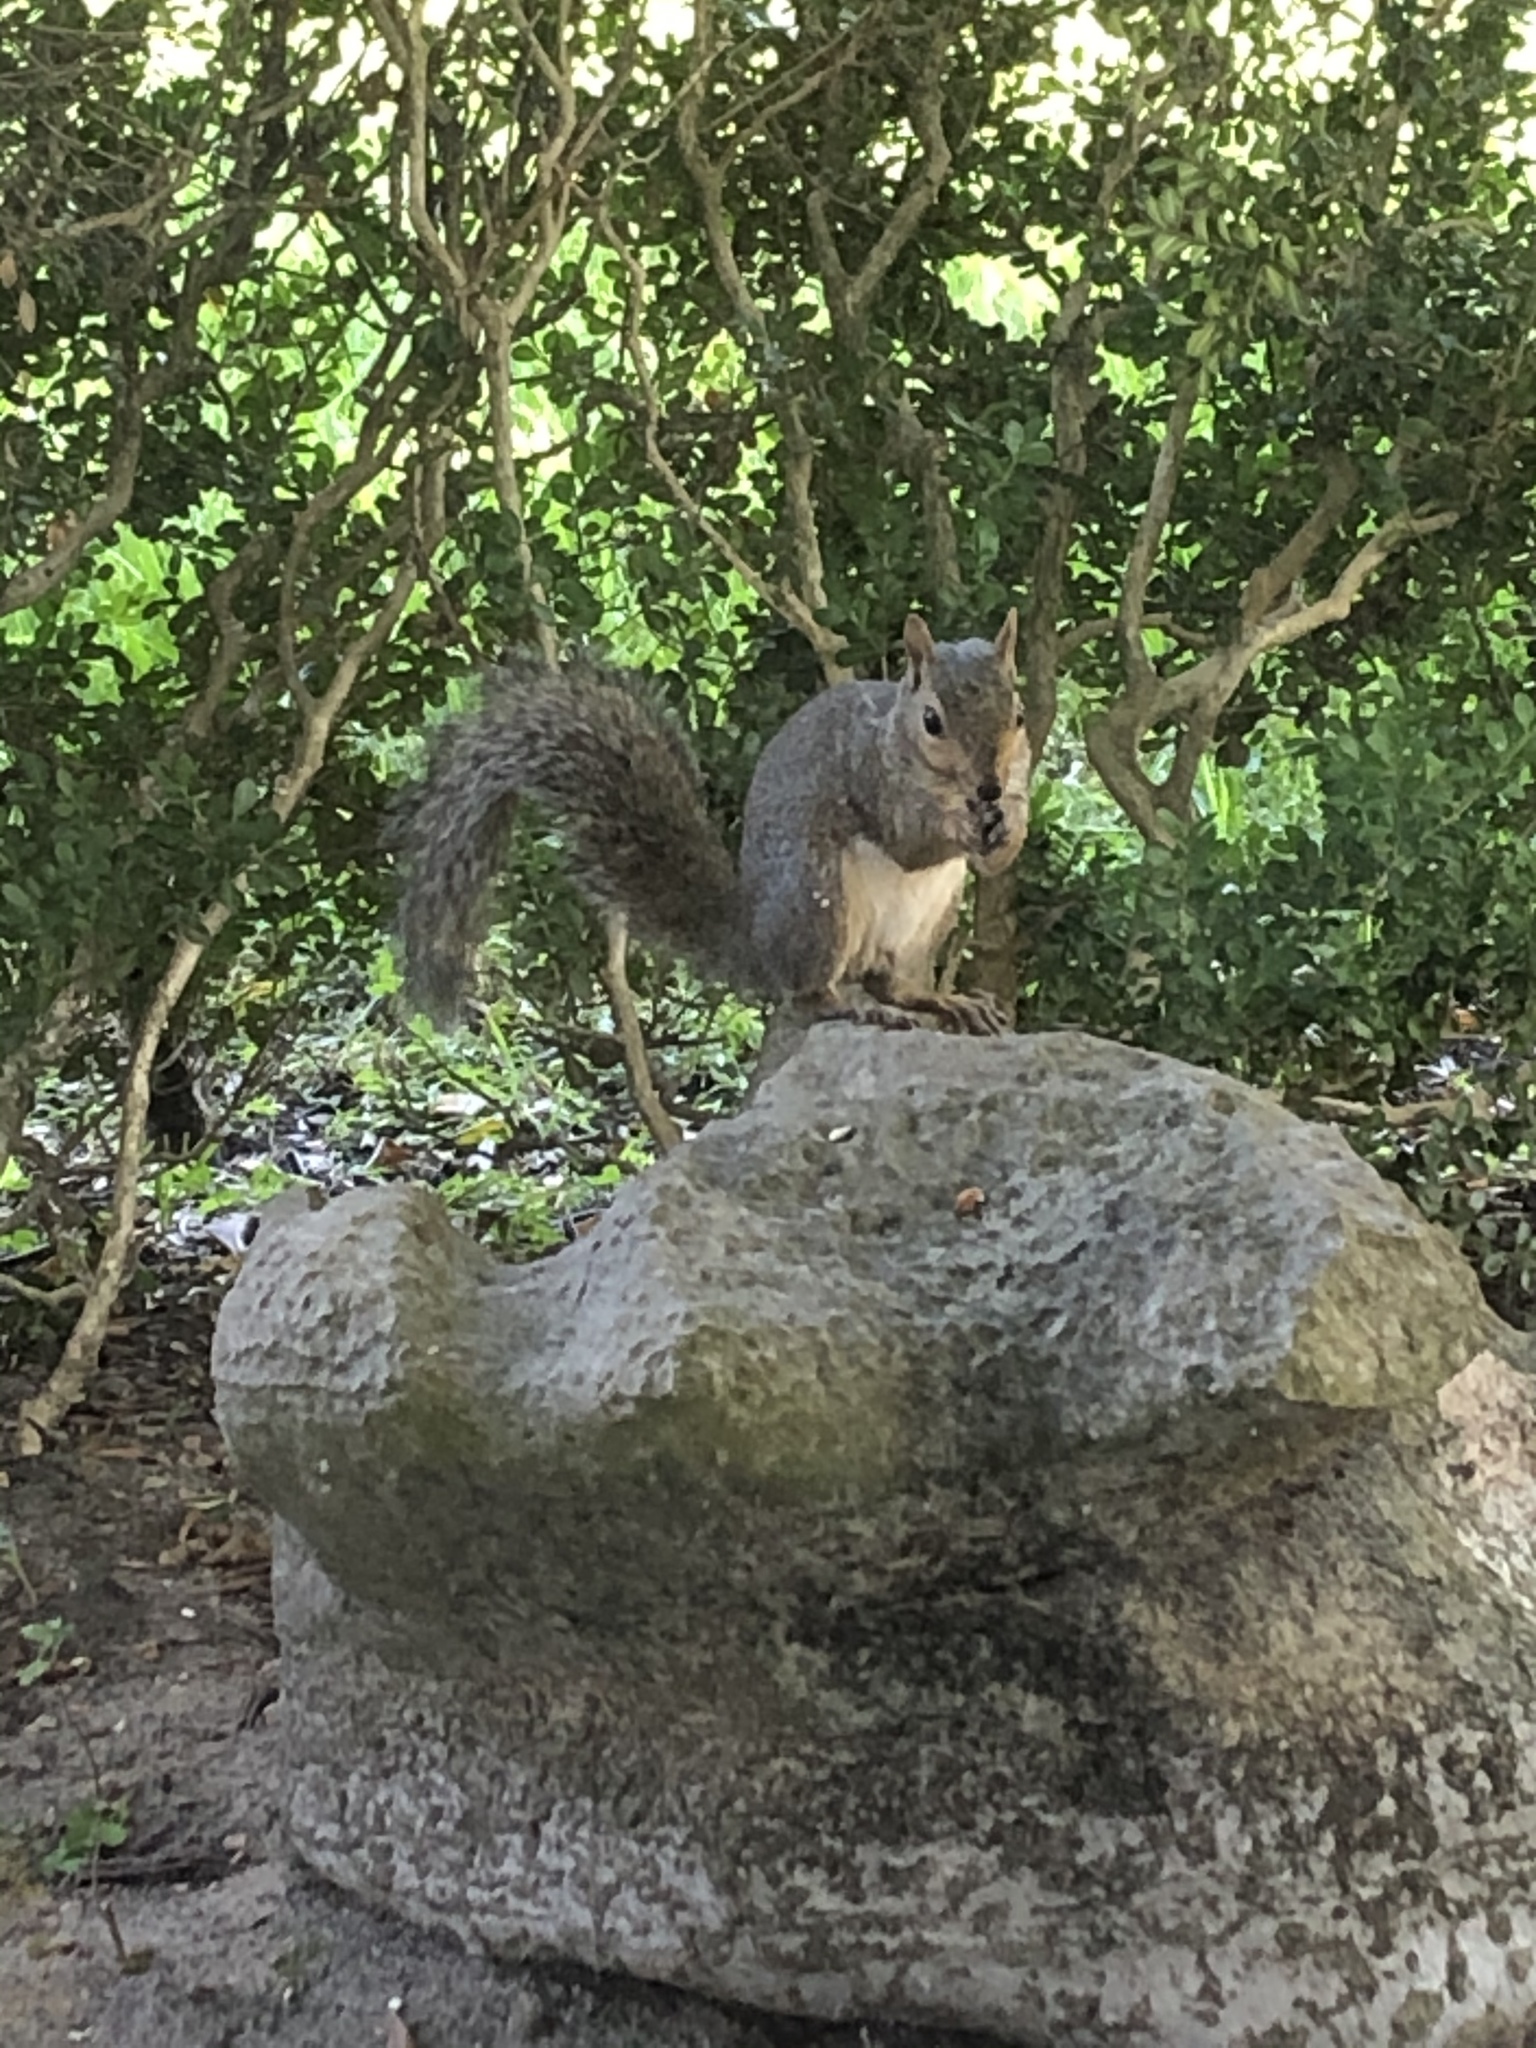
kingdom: Animalia
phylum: Chordata
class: Mammalia
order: Rodentia
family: Sciuridae
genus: Sciurus
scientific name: Sciurus carolinensis
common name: Eastern gray squirrel
